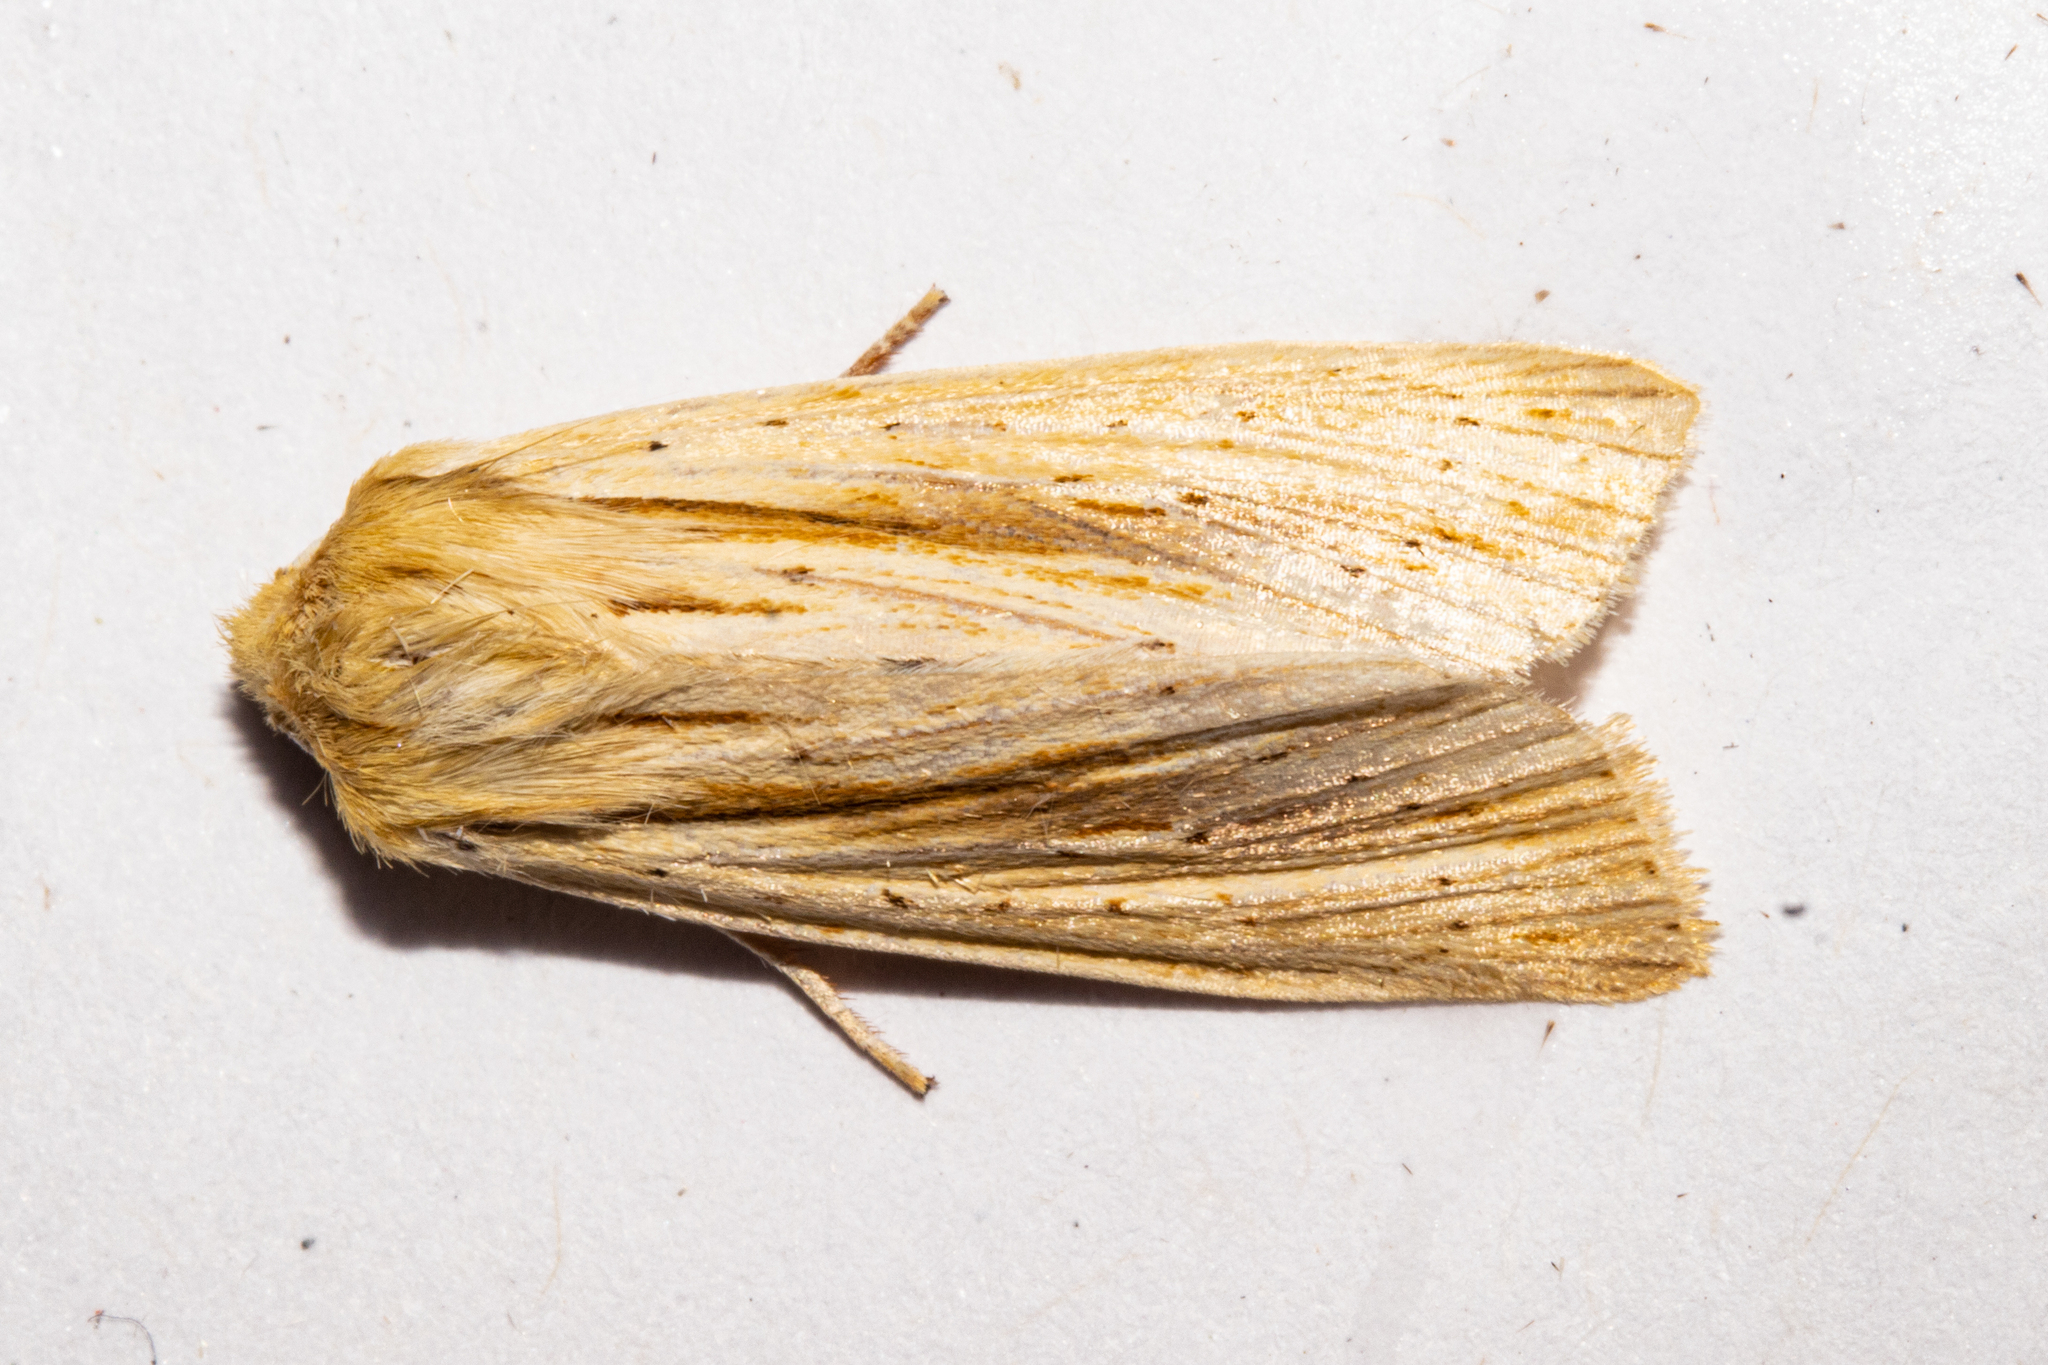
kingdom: Animalia
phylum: Arthropoda
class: Insecta
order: Lepidoptera
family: Noctuidae
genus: Ichneutica
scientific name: Ichneutica semivittata
